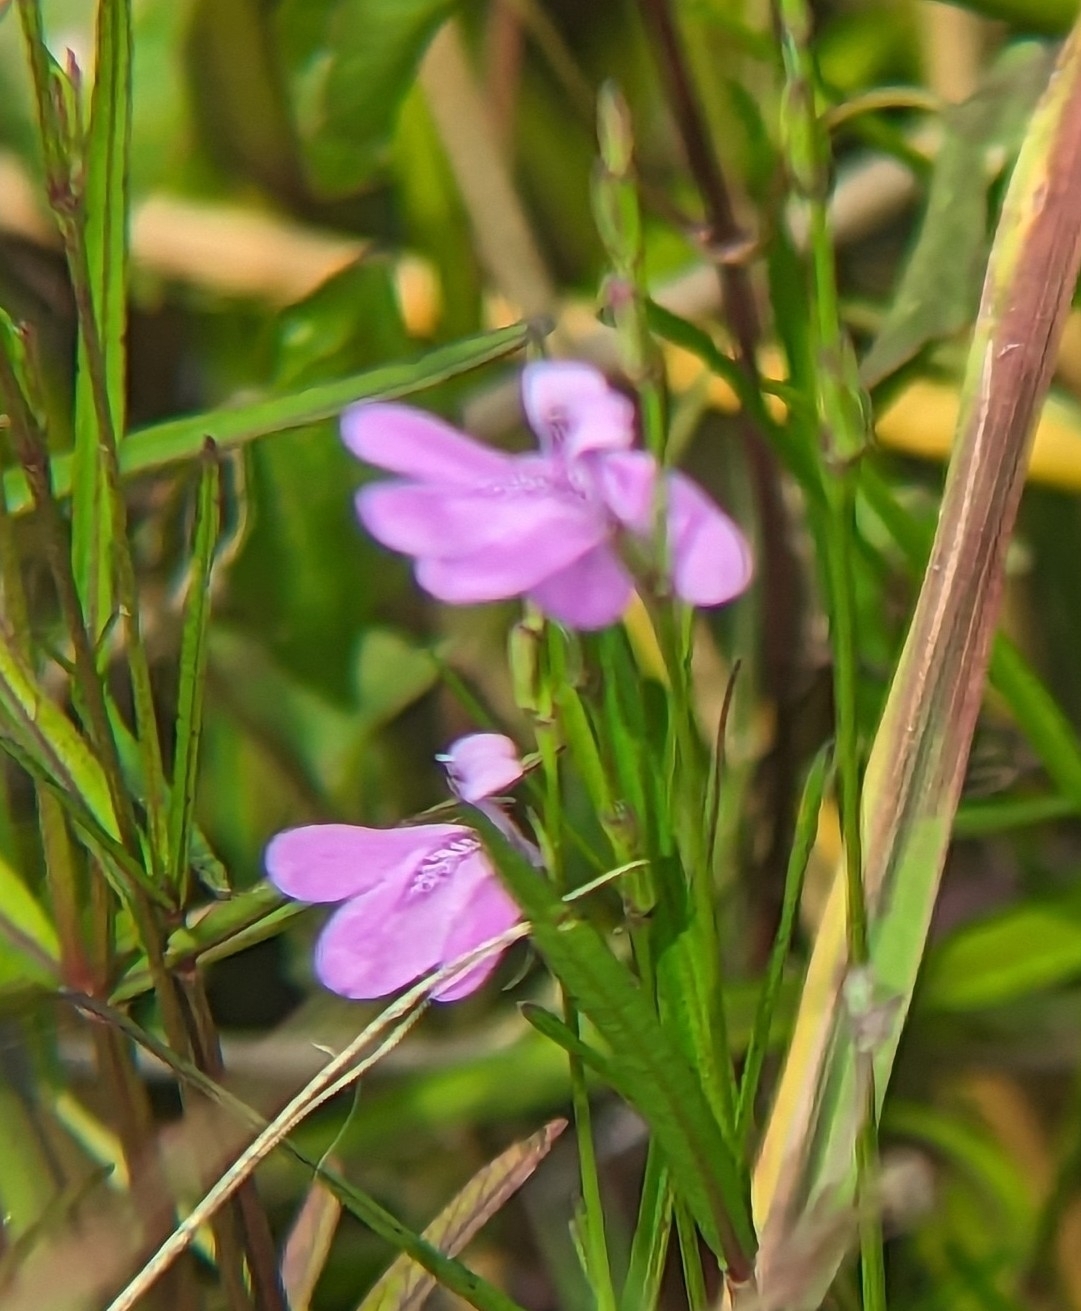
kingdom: Plantae
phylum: Tracheophyta
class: Magnoliopsida
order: Lamiales
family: Acanthaceae
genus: Dianthera
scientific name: Dianthera angusta
